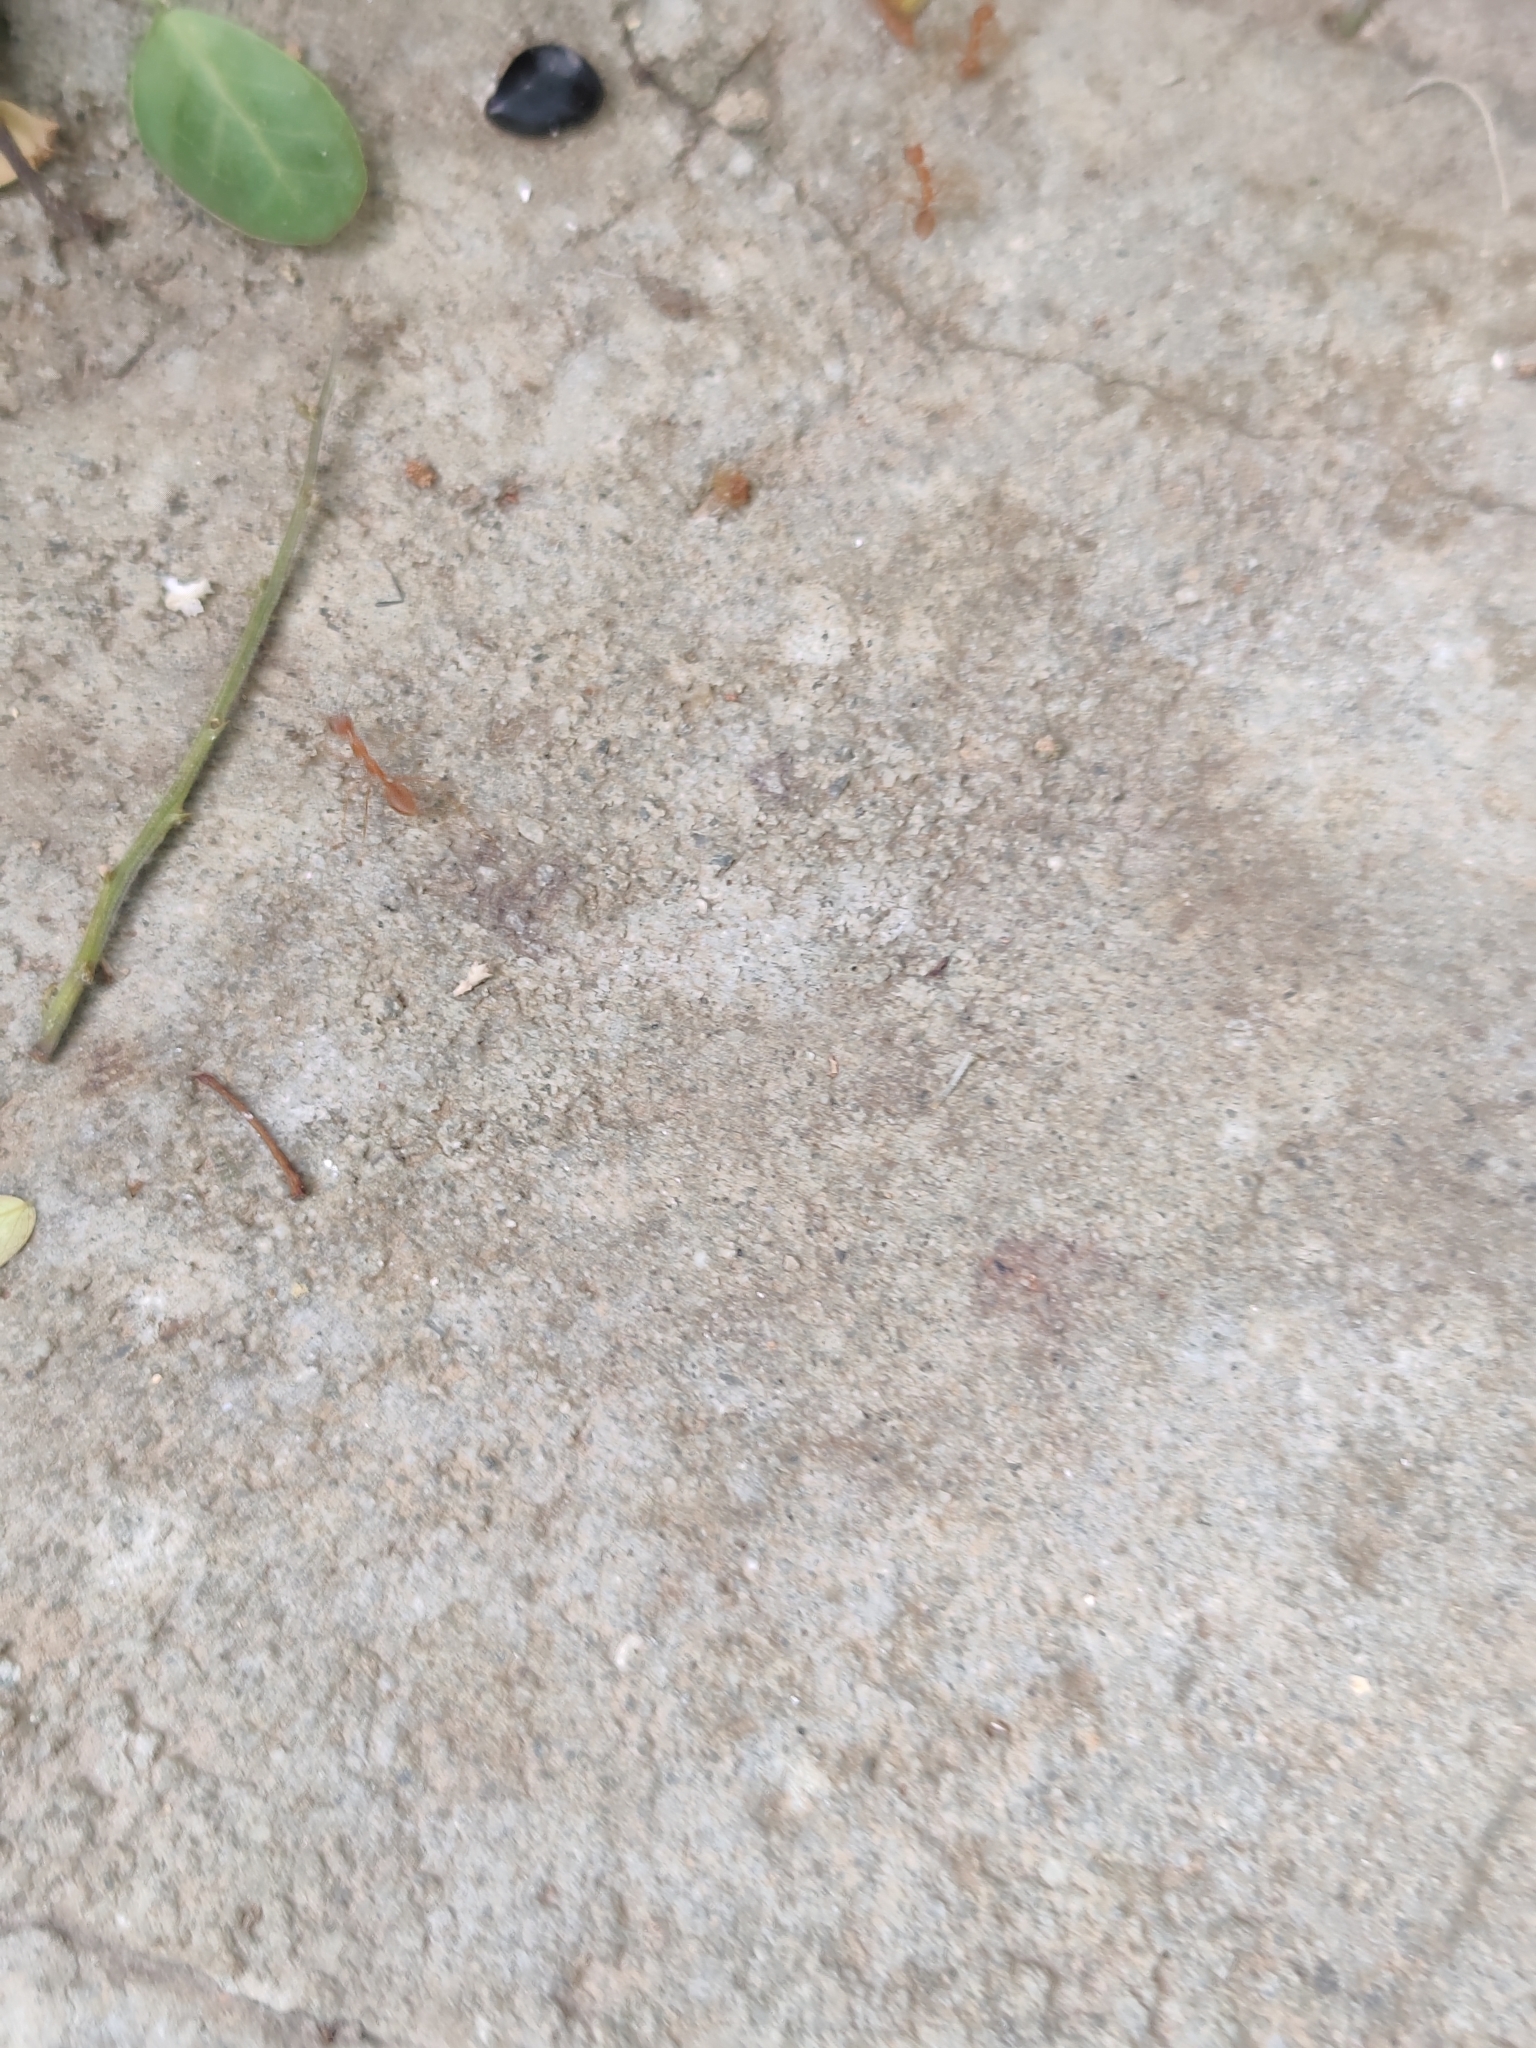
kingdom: Animalia
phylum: Arthropoda
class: Insecta
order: Hymenoptera
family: Formicidae
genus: Oecophylla
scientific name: Oecophylla smaragdina
